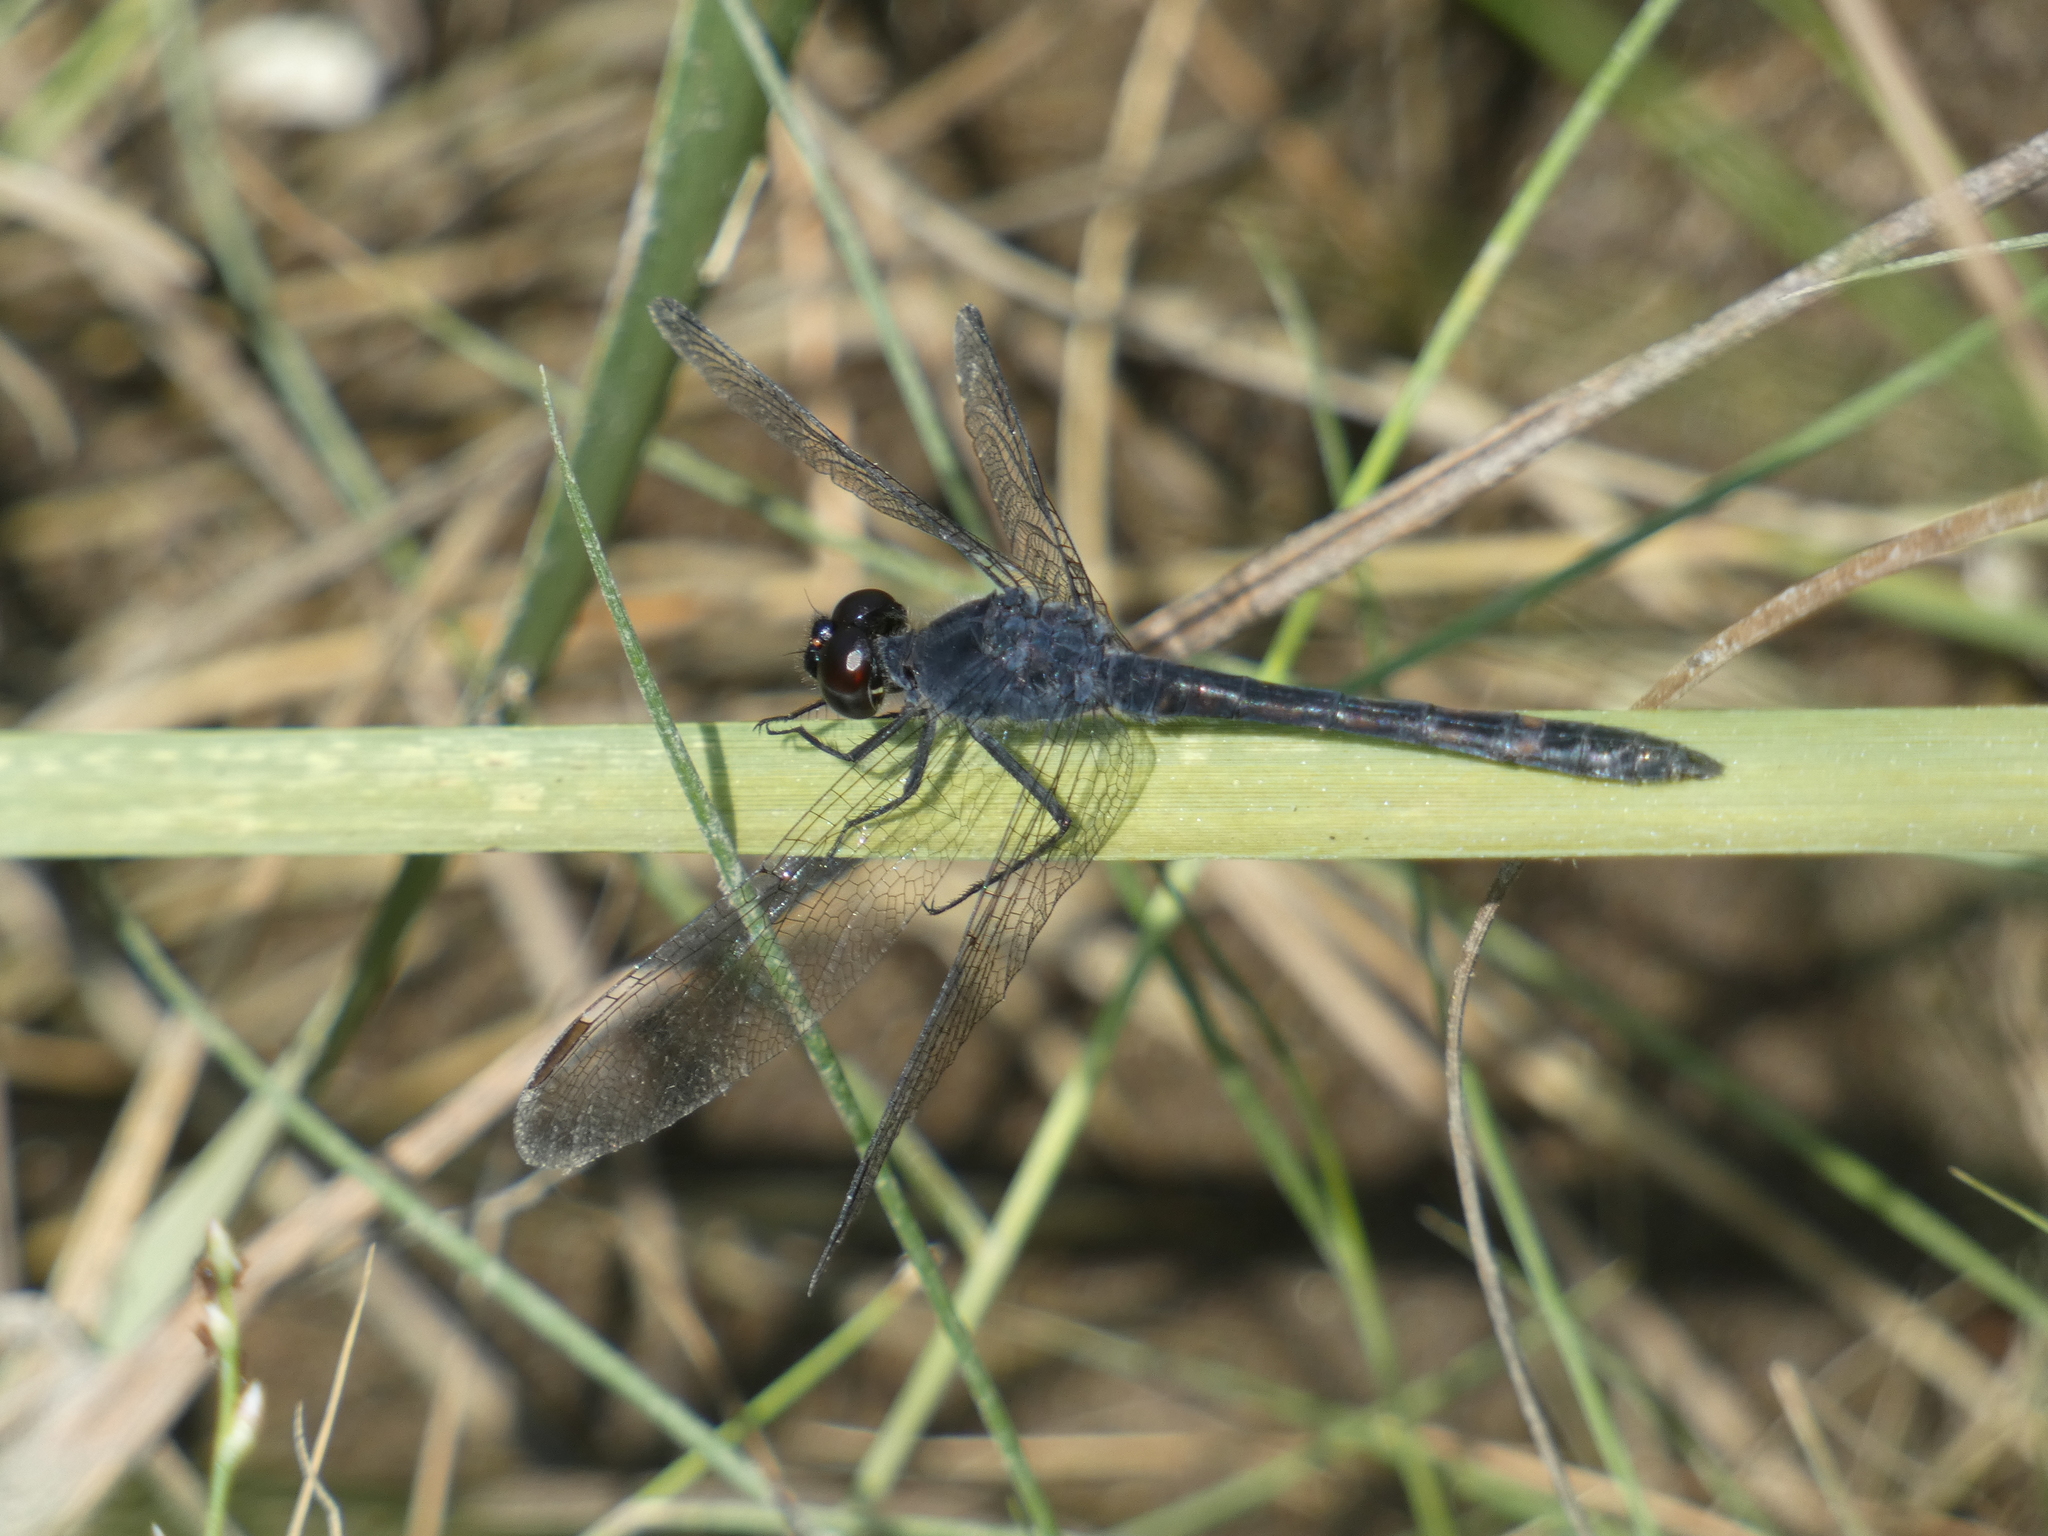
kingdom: Animalia
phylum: Arthropoda
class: Insecta
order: Odonata
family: Libellulidae
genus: Libellula
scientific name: Libellula incesta
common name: Slaty skimmer
